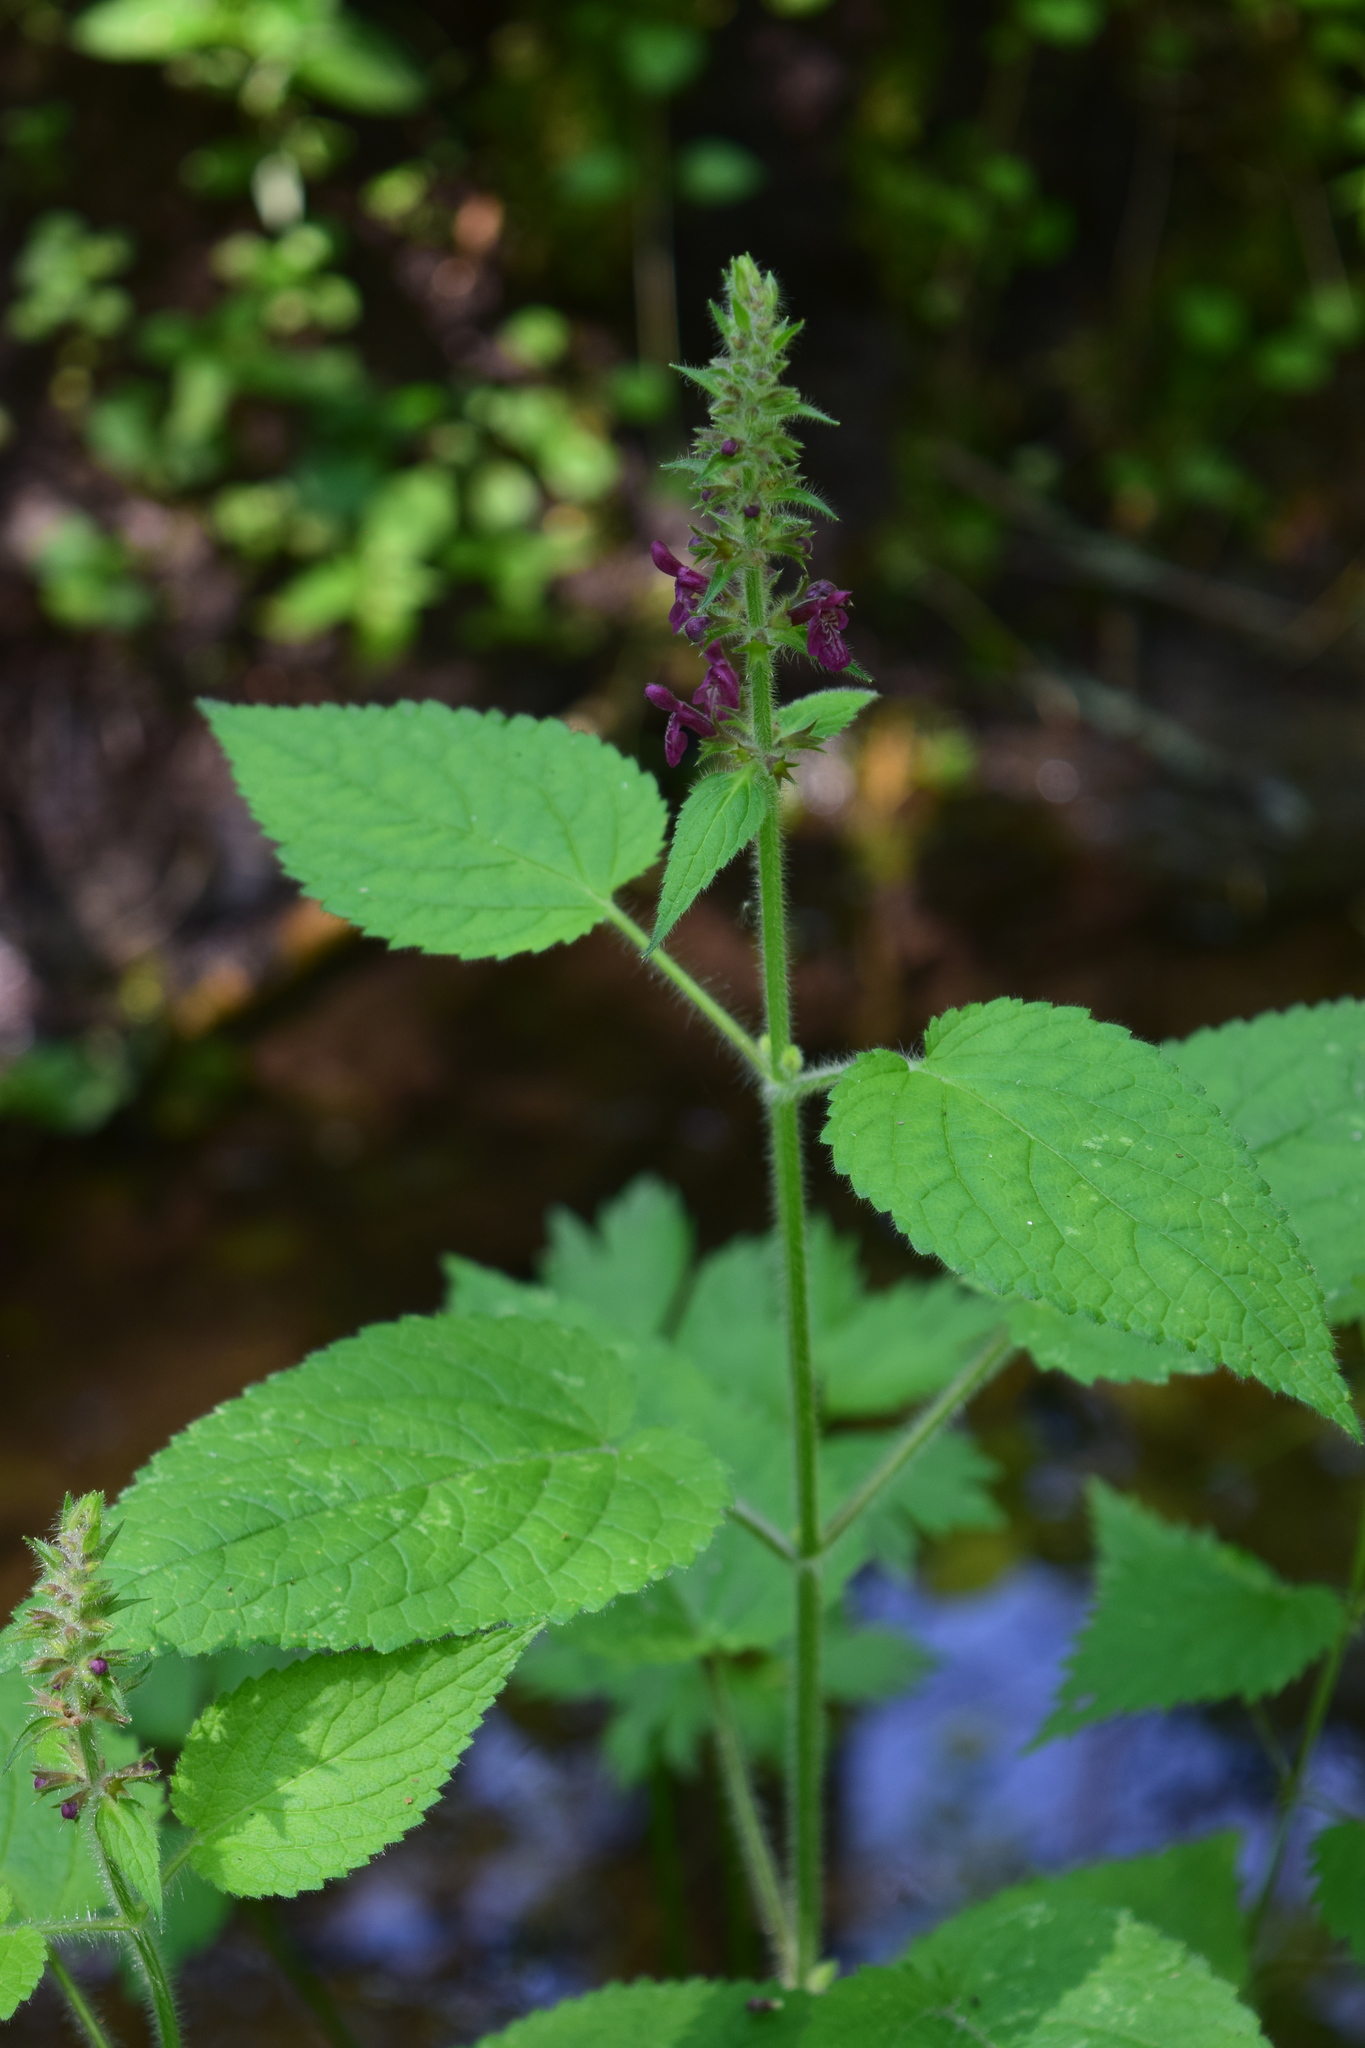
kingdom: Plantae
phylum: Tracheophyta
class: Magnoliopsida
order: Lamiales
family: Lamiaceae
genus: Stachys
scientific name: Stachys sylvatica
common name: Hedge woundwort
